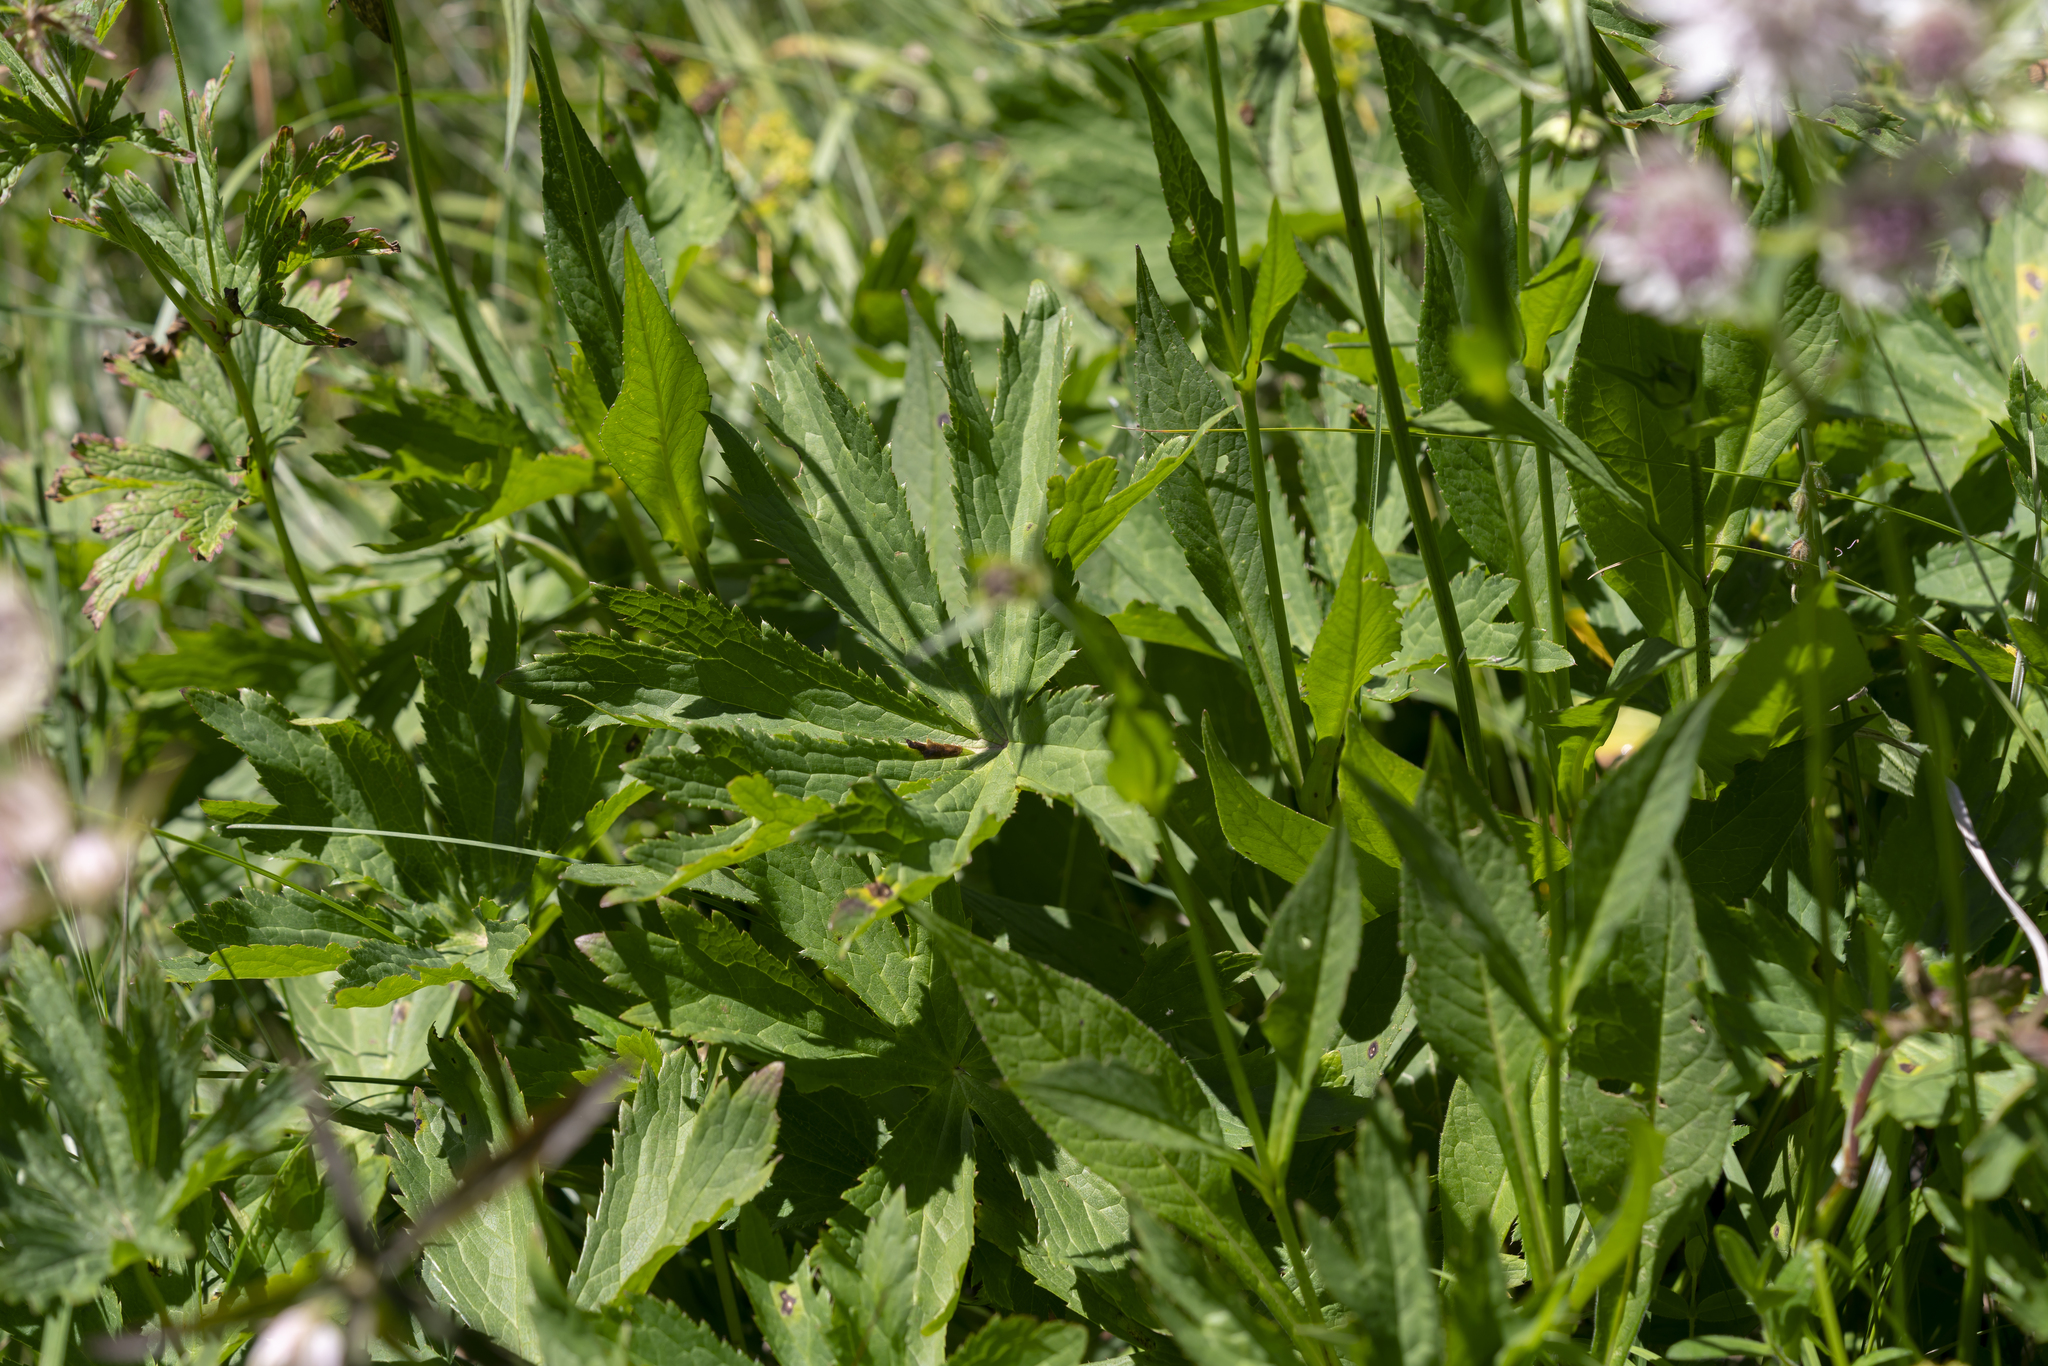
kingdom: Plantae
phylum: Tracheophyta
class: Magnoliopsida
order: Apiales
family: Apiaceae
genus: Astrantia
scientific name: Astrantia major
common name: Greater masterwort
